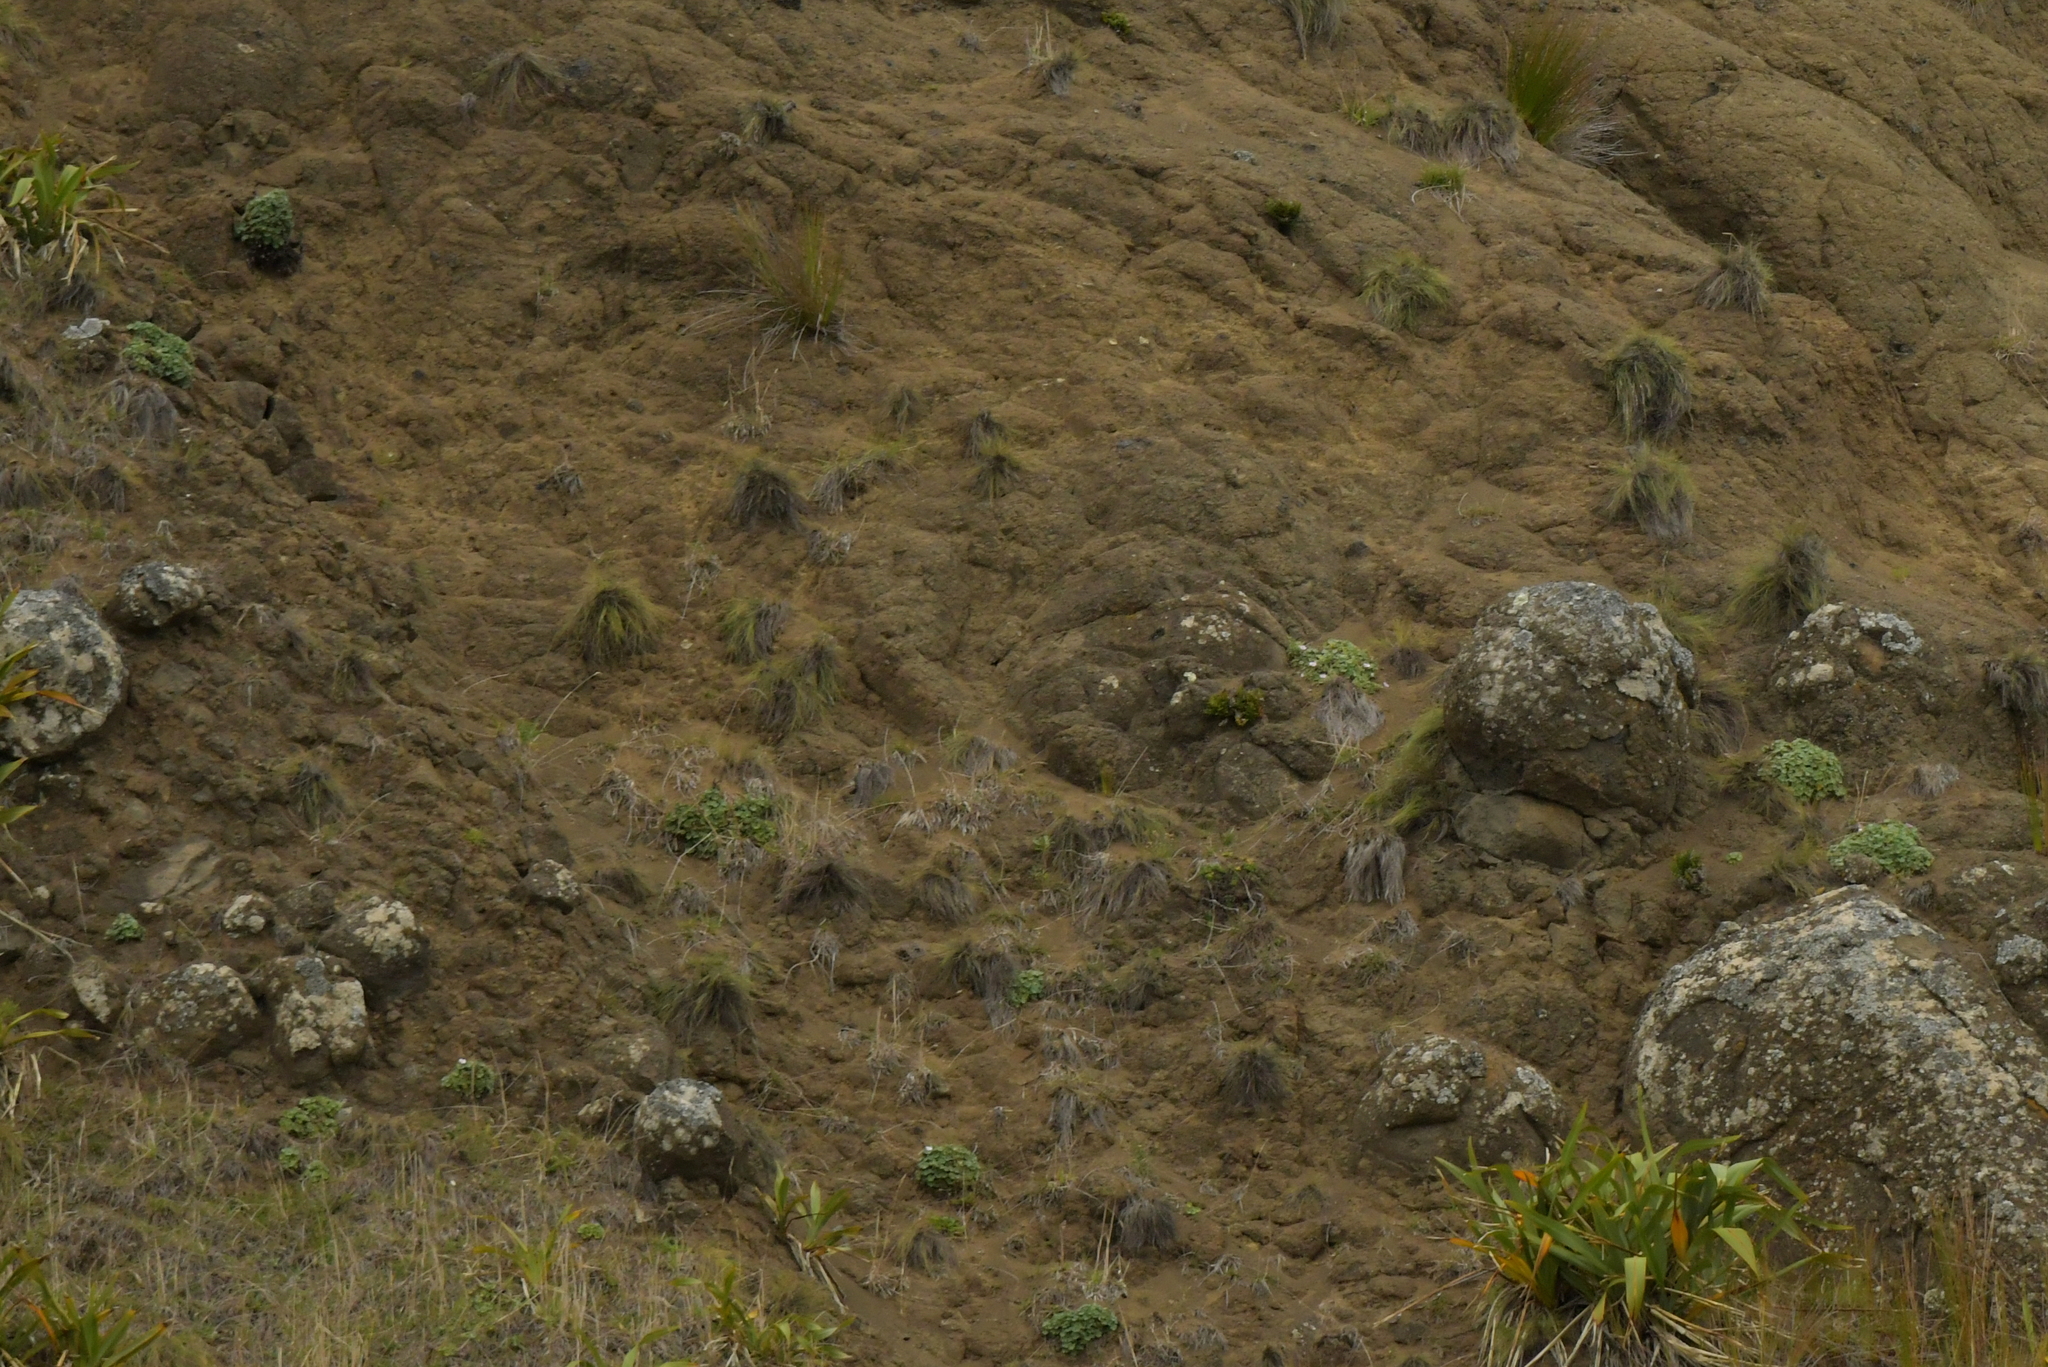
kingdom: Plantae
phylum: Tracheophyta
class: Magnoliopsida
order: Geraniales
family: Geraniaceae
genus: Geranium
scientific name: Geranium traversii
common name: Cranesbill
